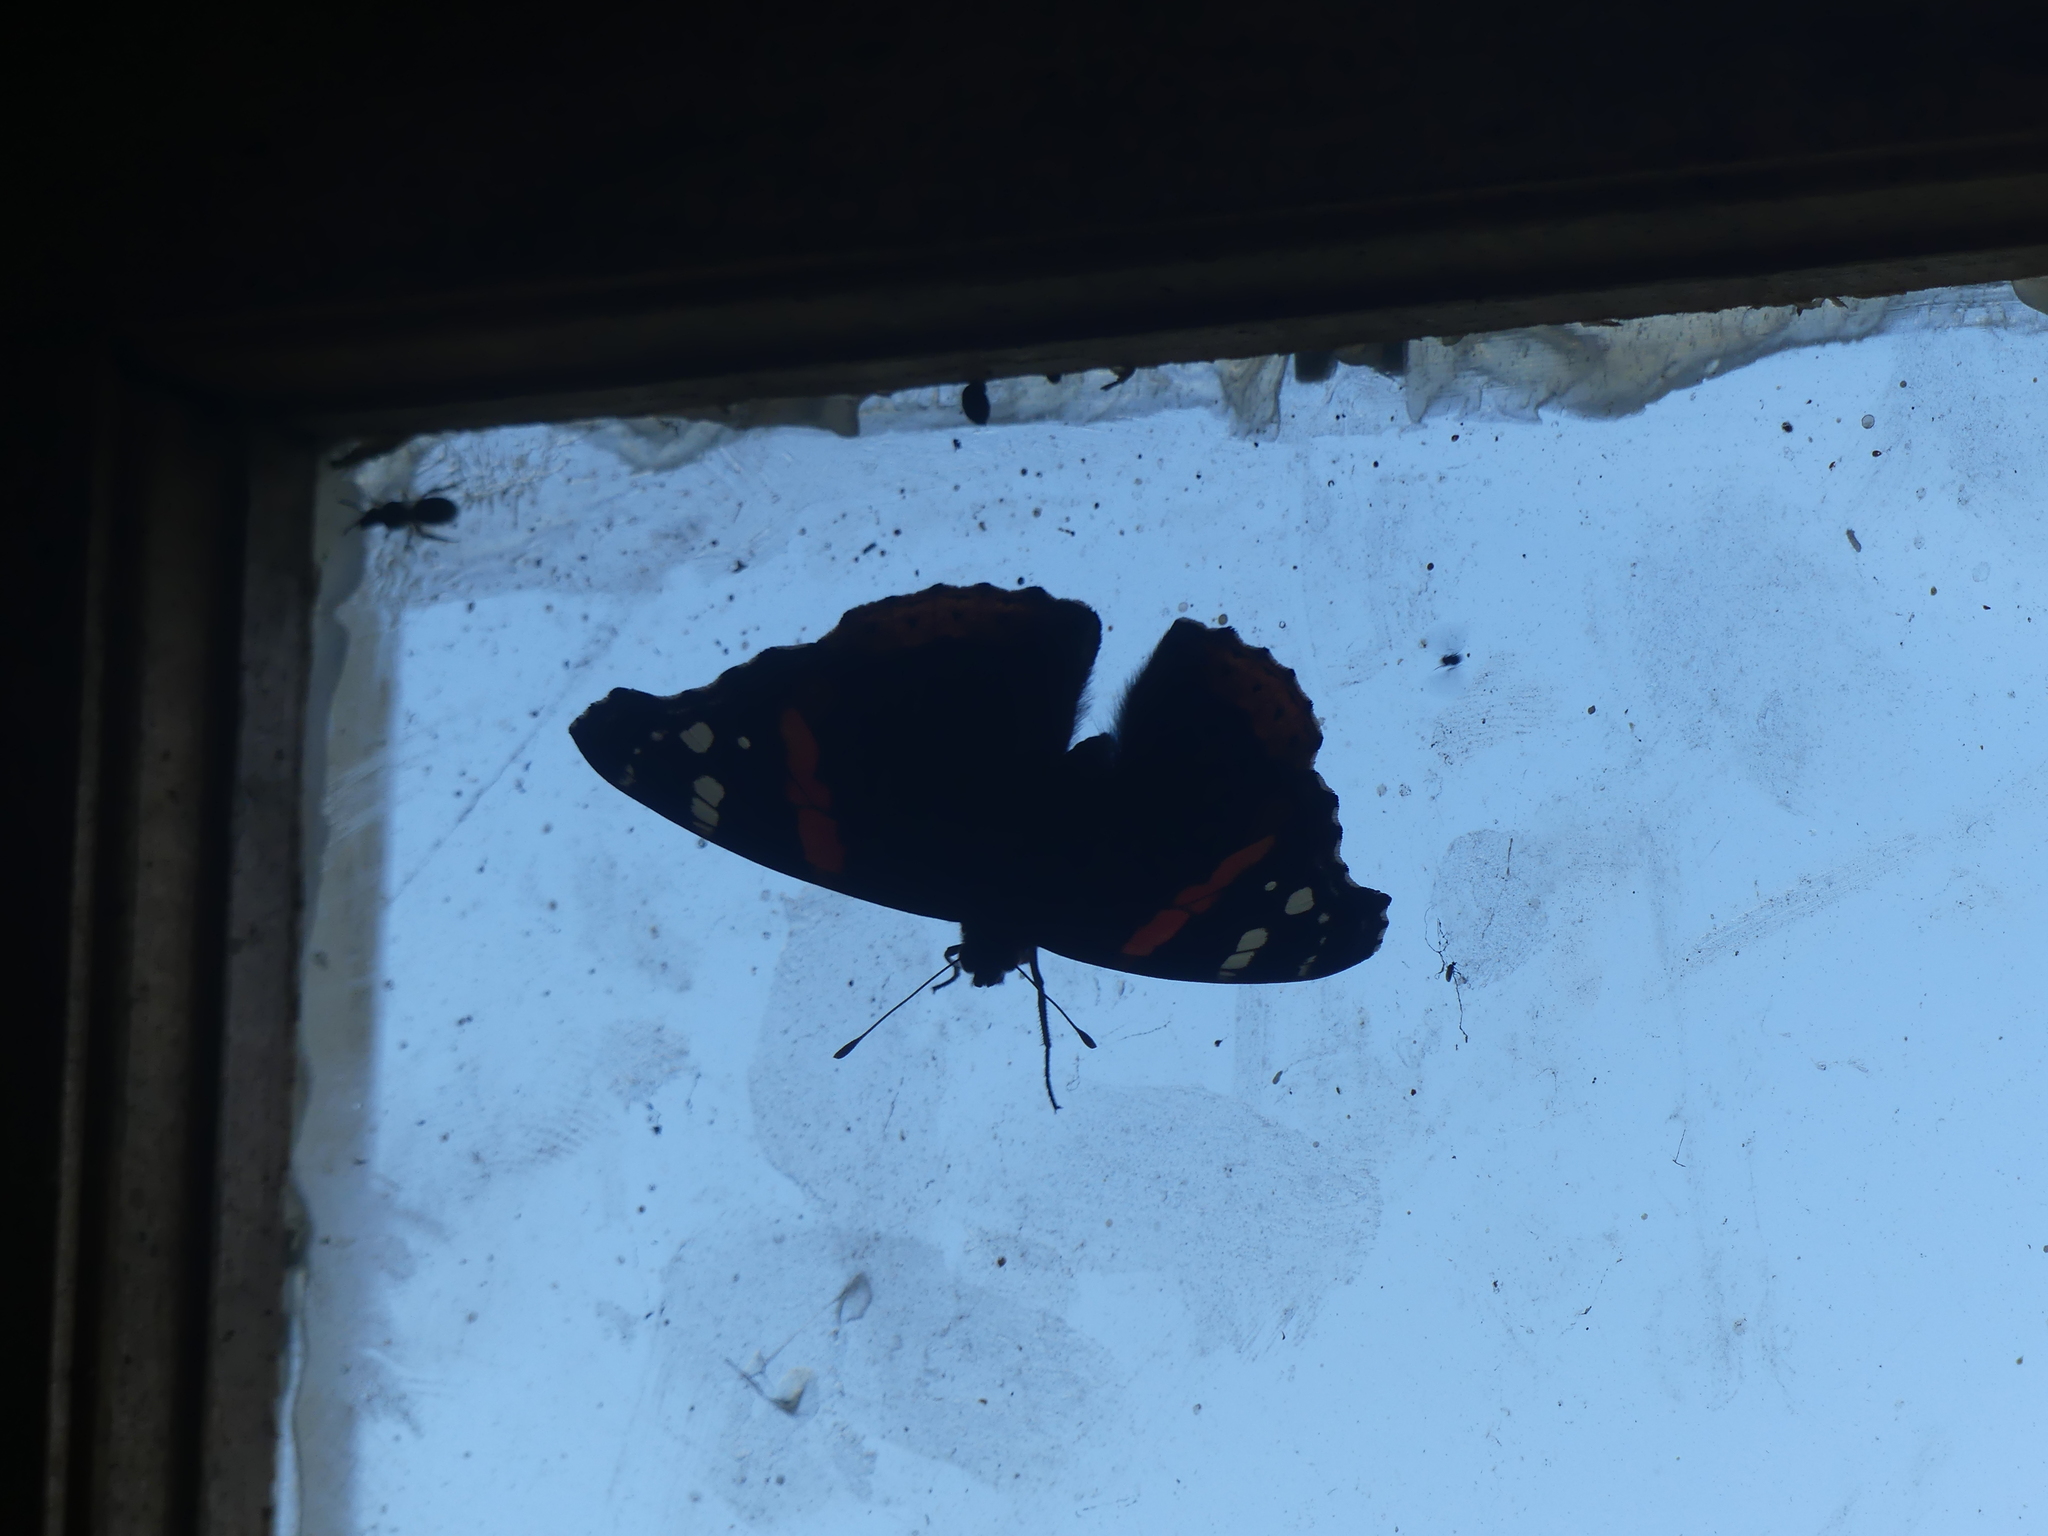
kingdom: Animalia
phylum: Arthropoda
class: Insecta
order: Lepidoptera
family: Nymphalidae
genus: Vanessa
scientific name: Vanessa atalanta
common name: Red admiral
